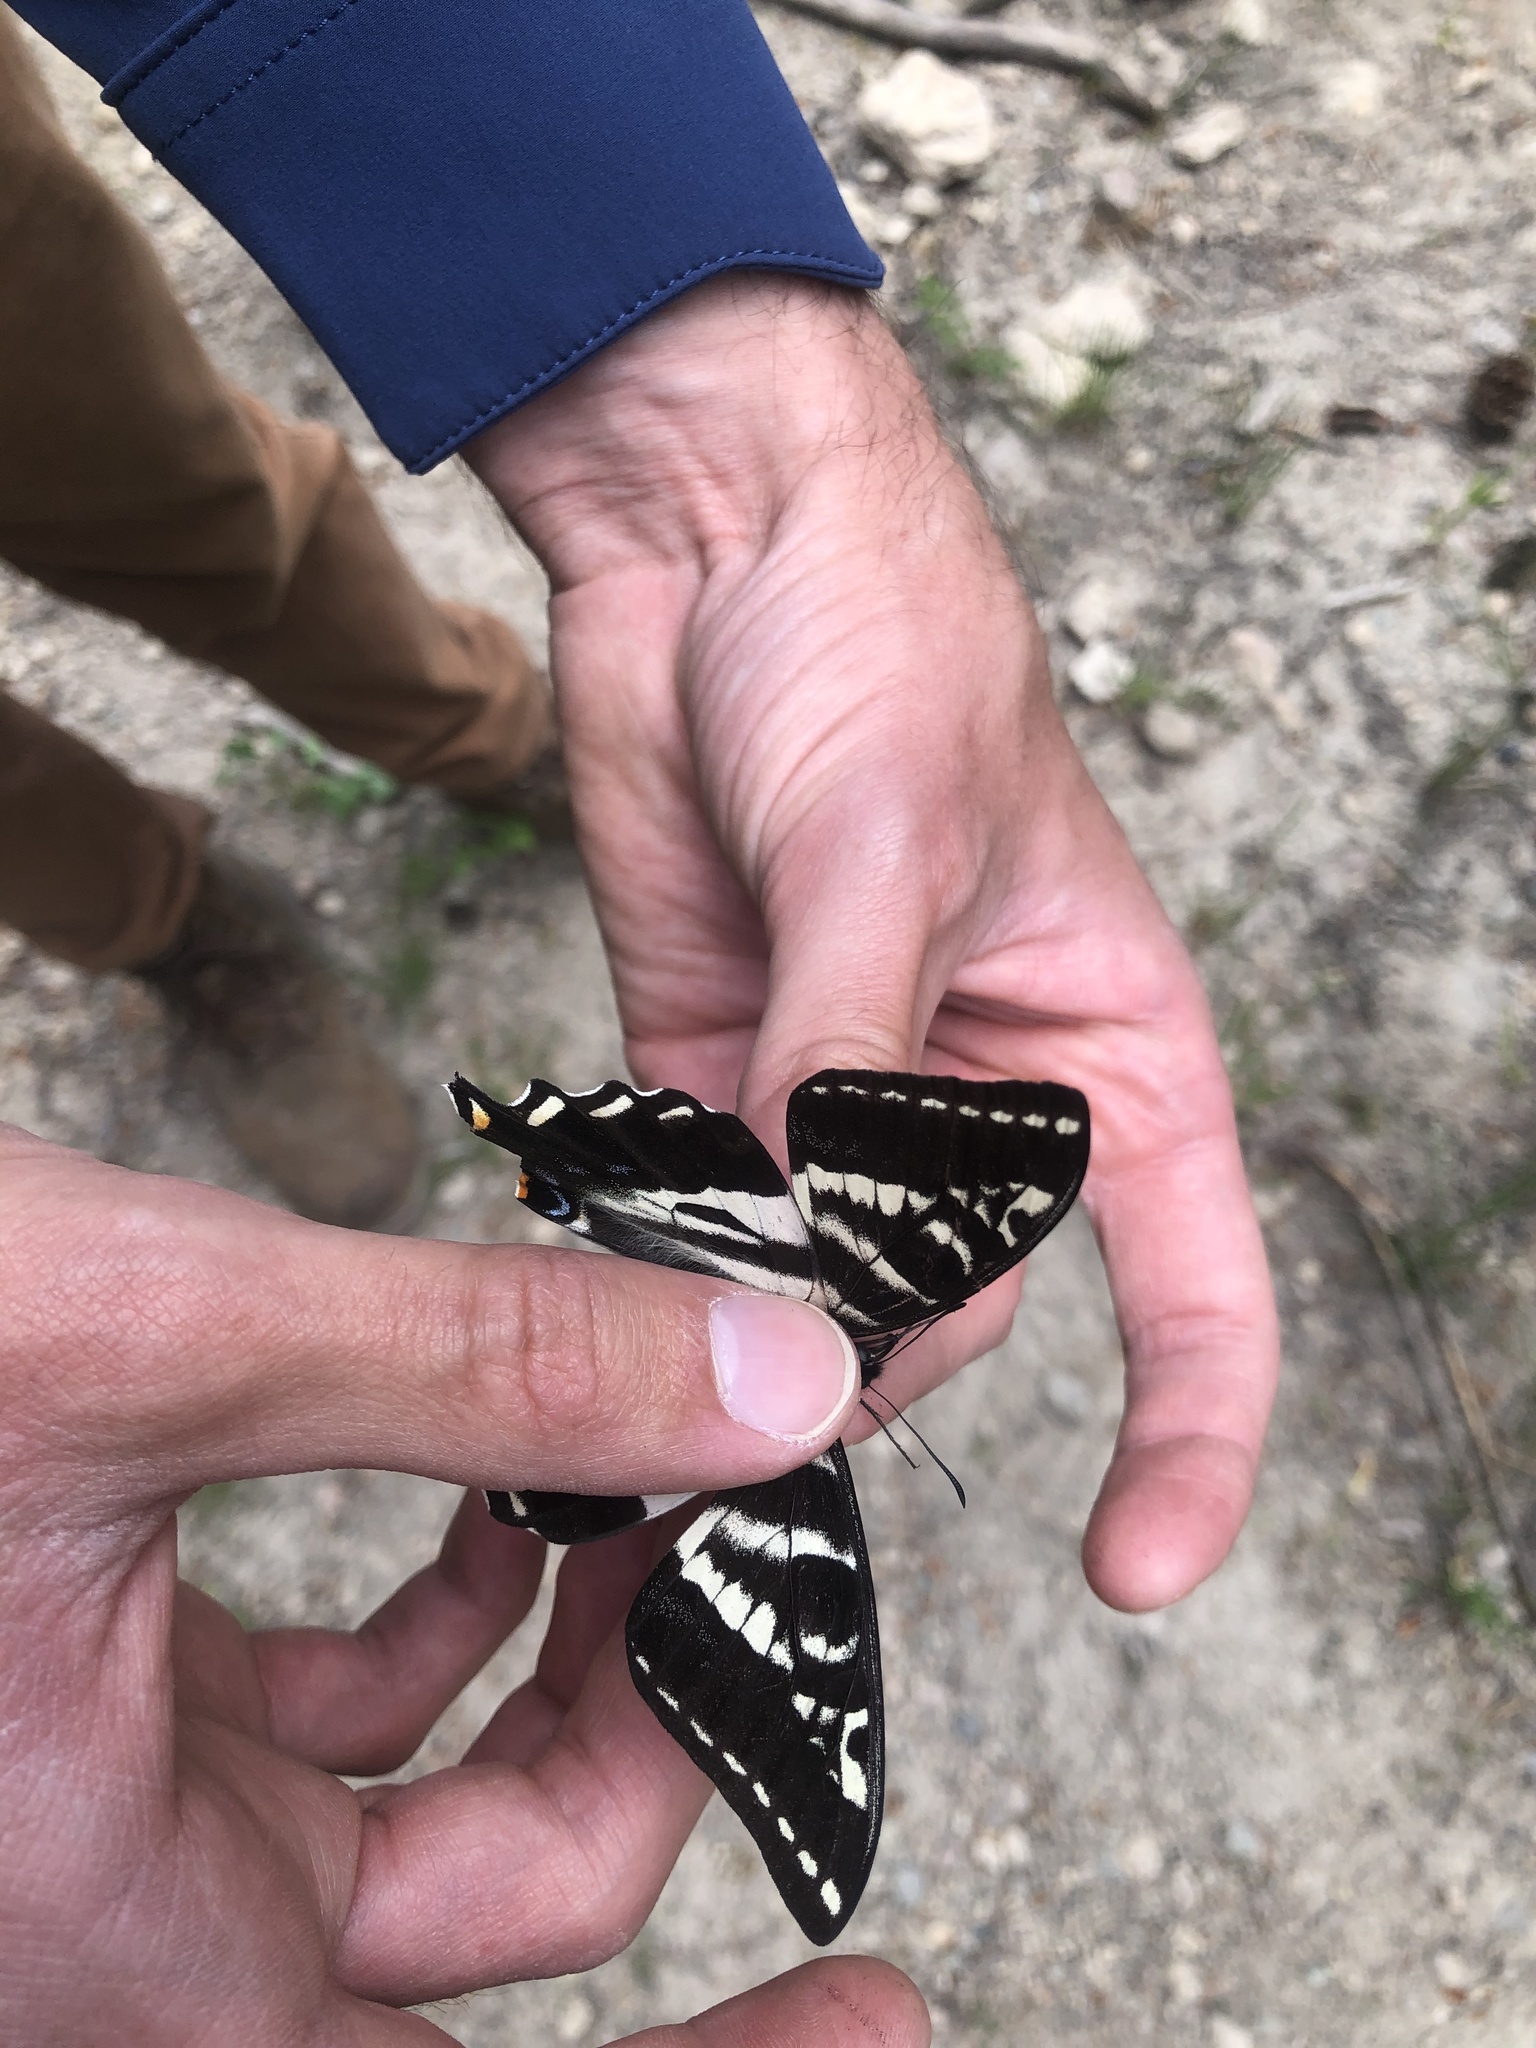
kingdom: Animalia
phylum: Arthropoda
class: Insecta
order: Lepidoptera
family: Papilionidae
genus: Papilio
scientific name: Papilio eurymedon
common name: Pale tiger swallowtail
